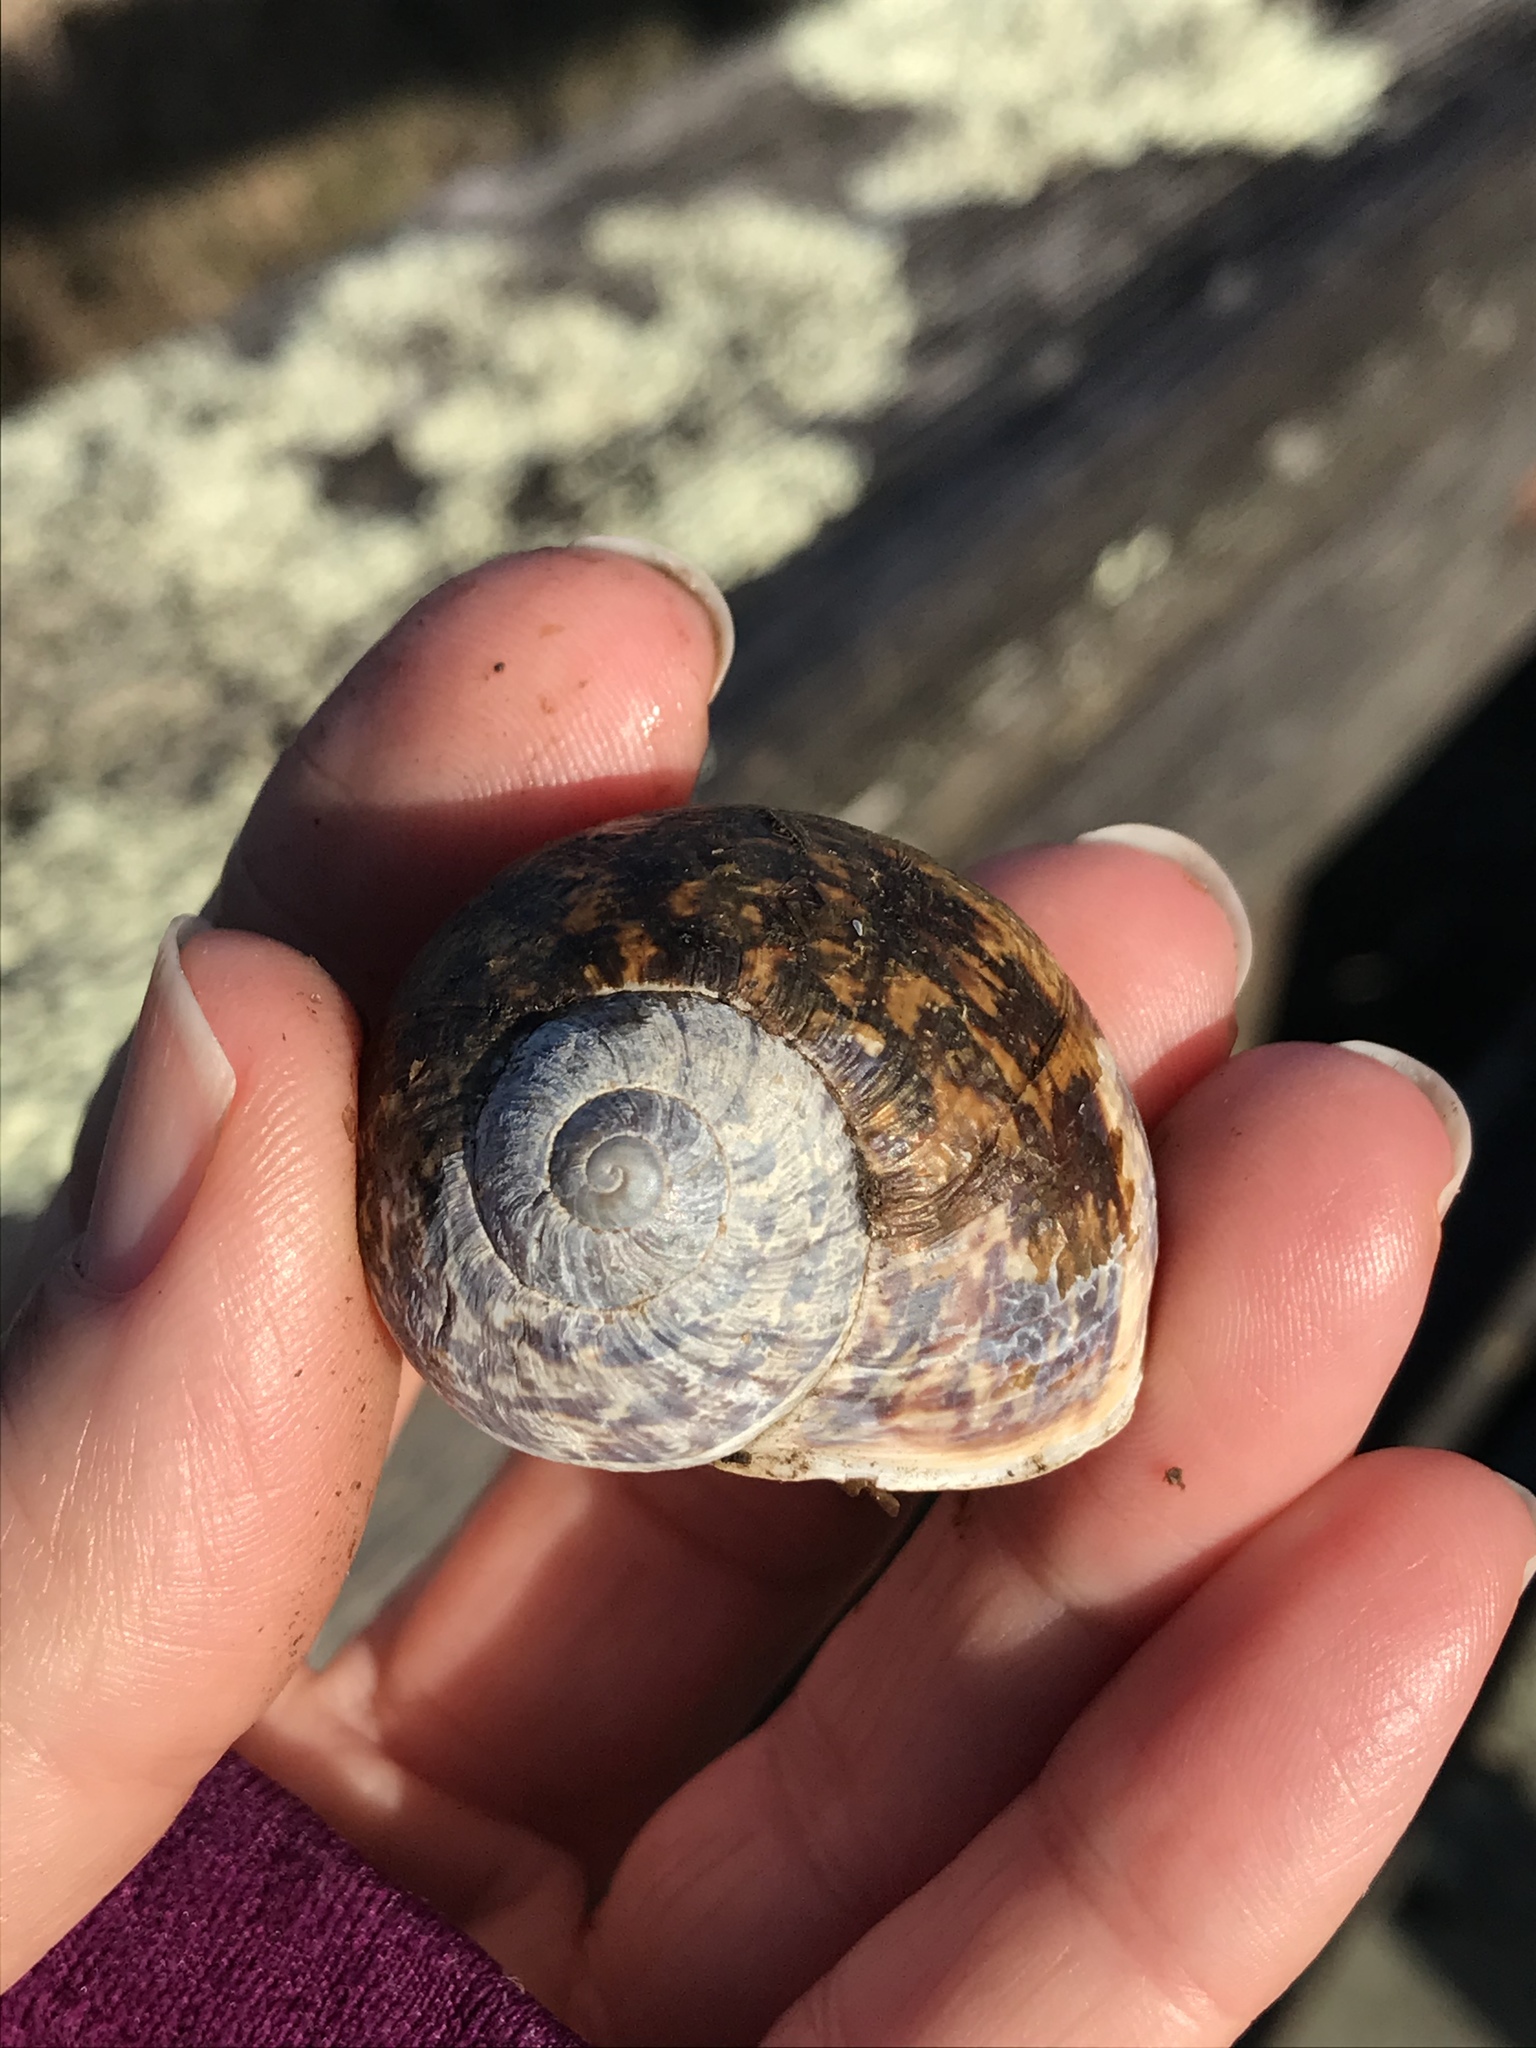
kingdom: Animalia
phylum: Mollusca
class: Gastropoda
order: Stylommatophora
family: Helicidae
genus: Cornu
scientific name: Cornu aspersum
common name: Brown garden snail
